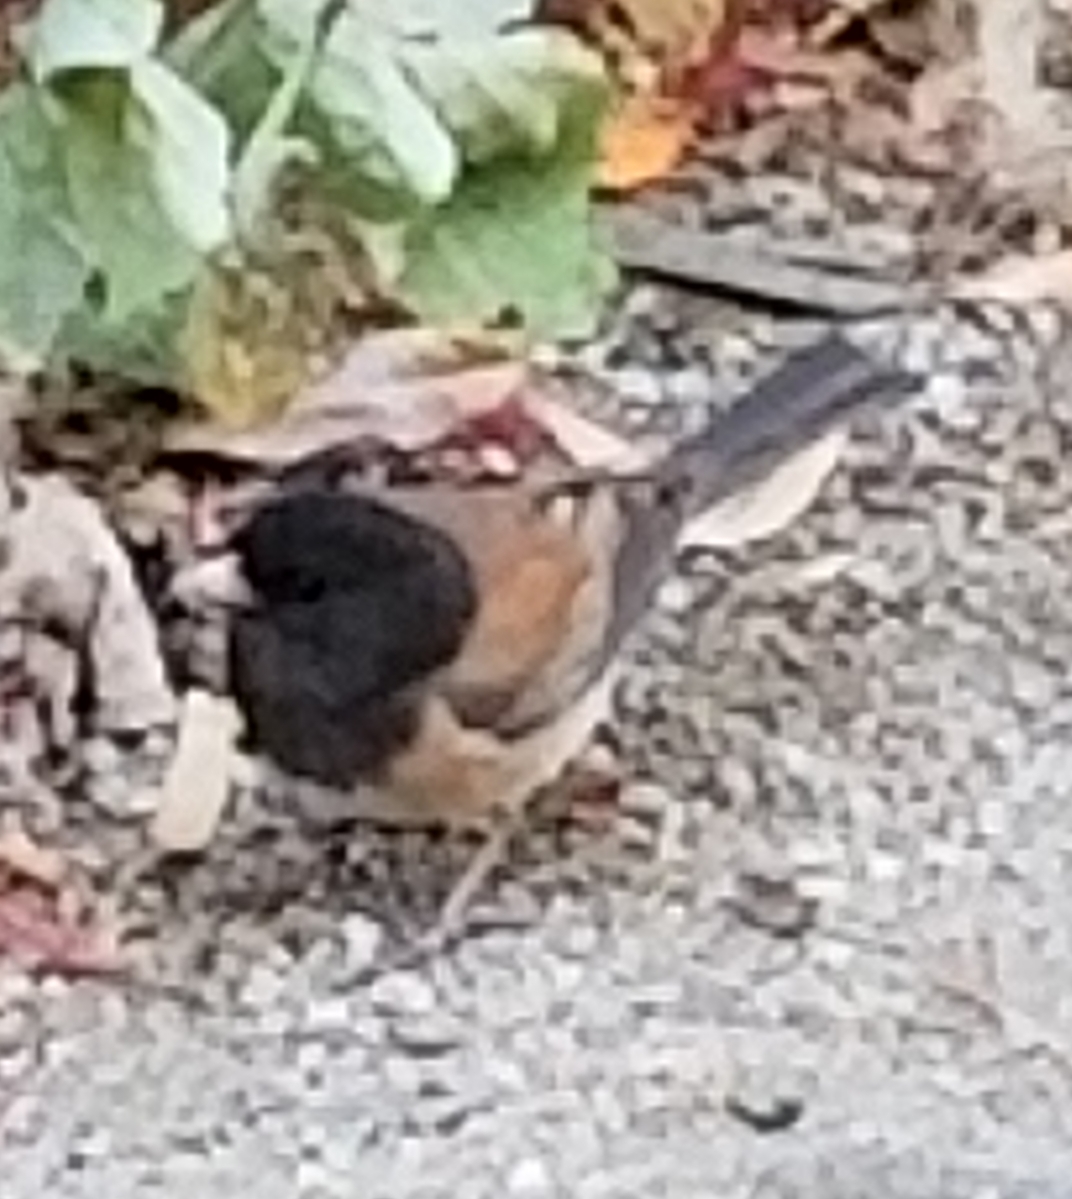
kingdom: Animalia
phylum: Chordata
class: Aves
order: Passeriformes
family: Passerellidae
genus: Junco
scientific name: Junco hyemalis
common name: Dark-eyed junco
